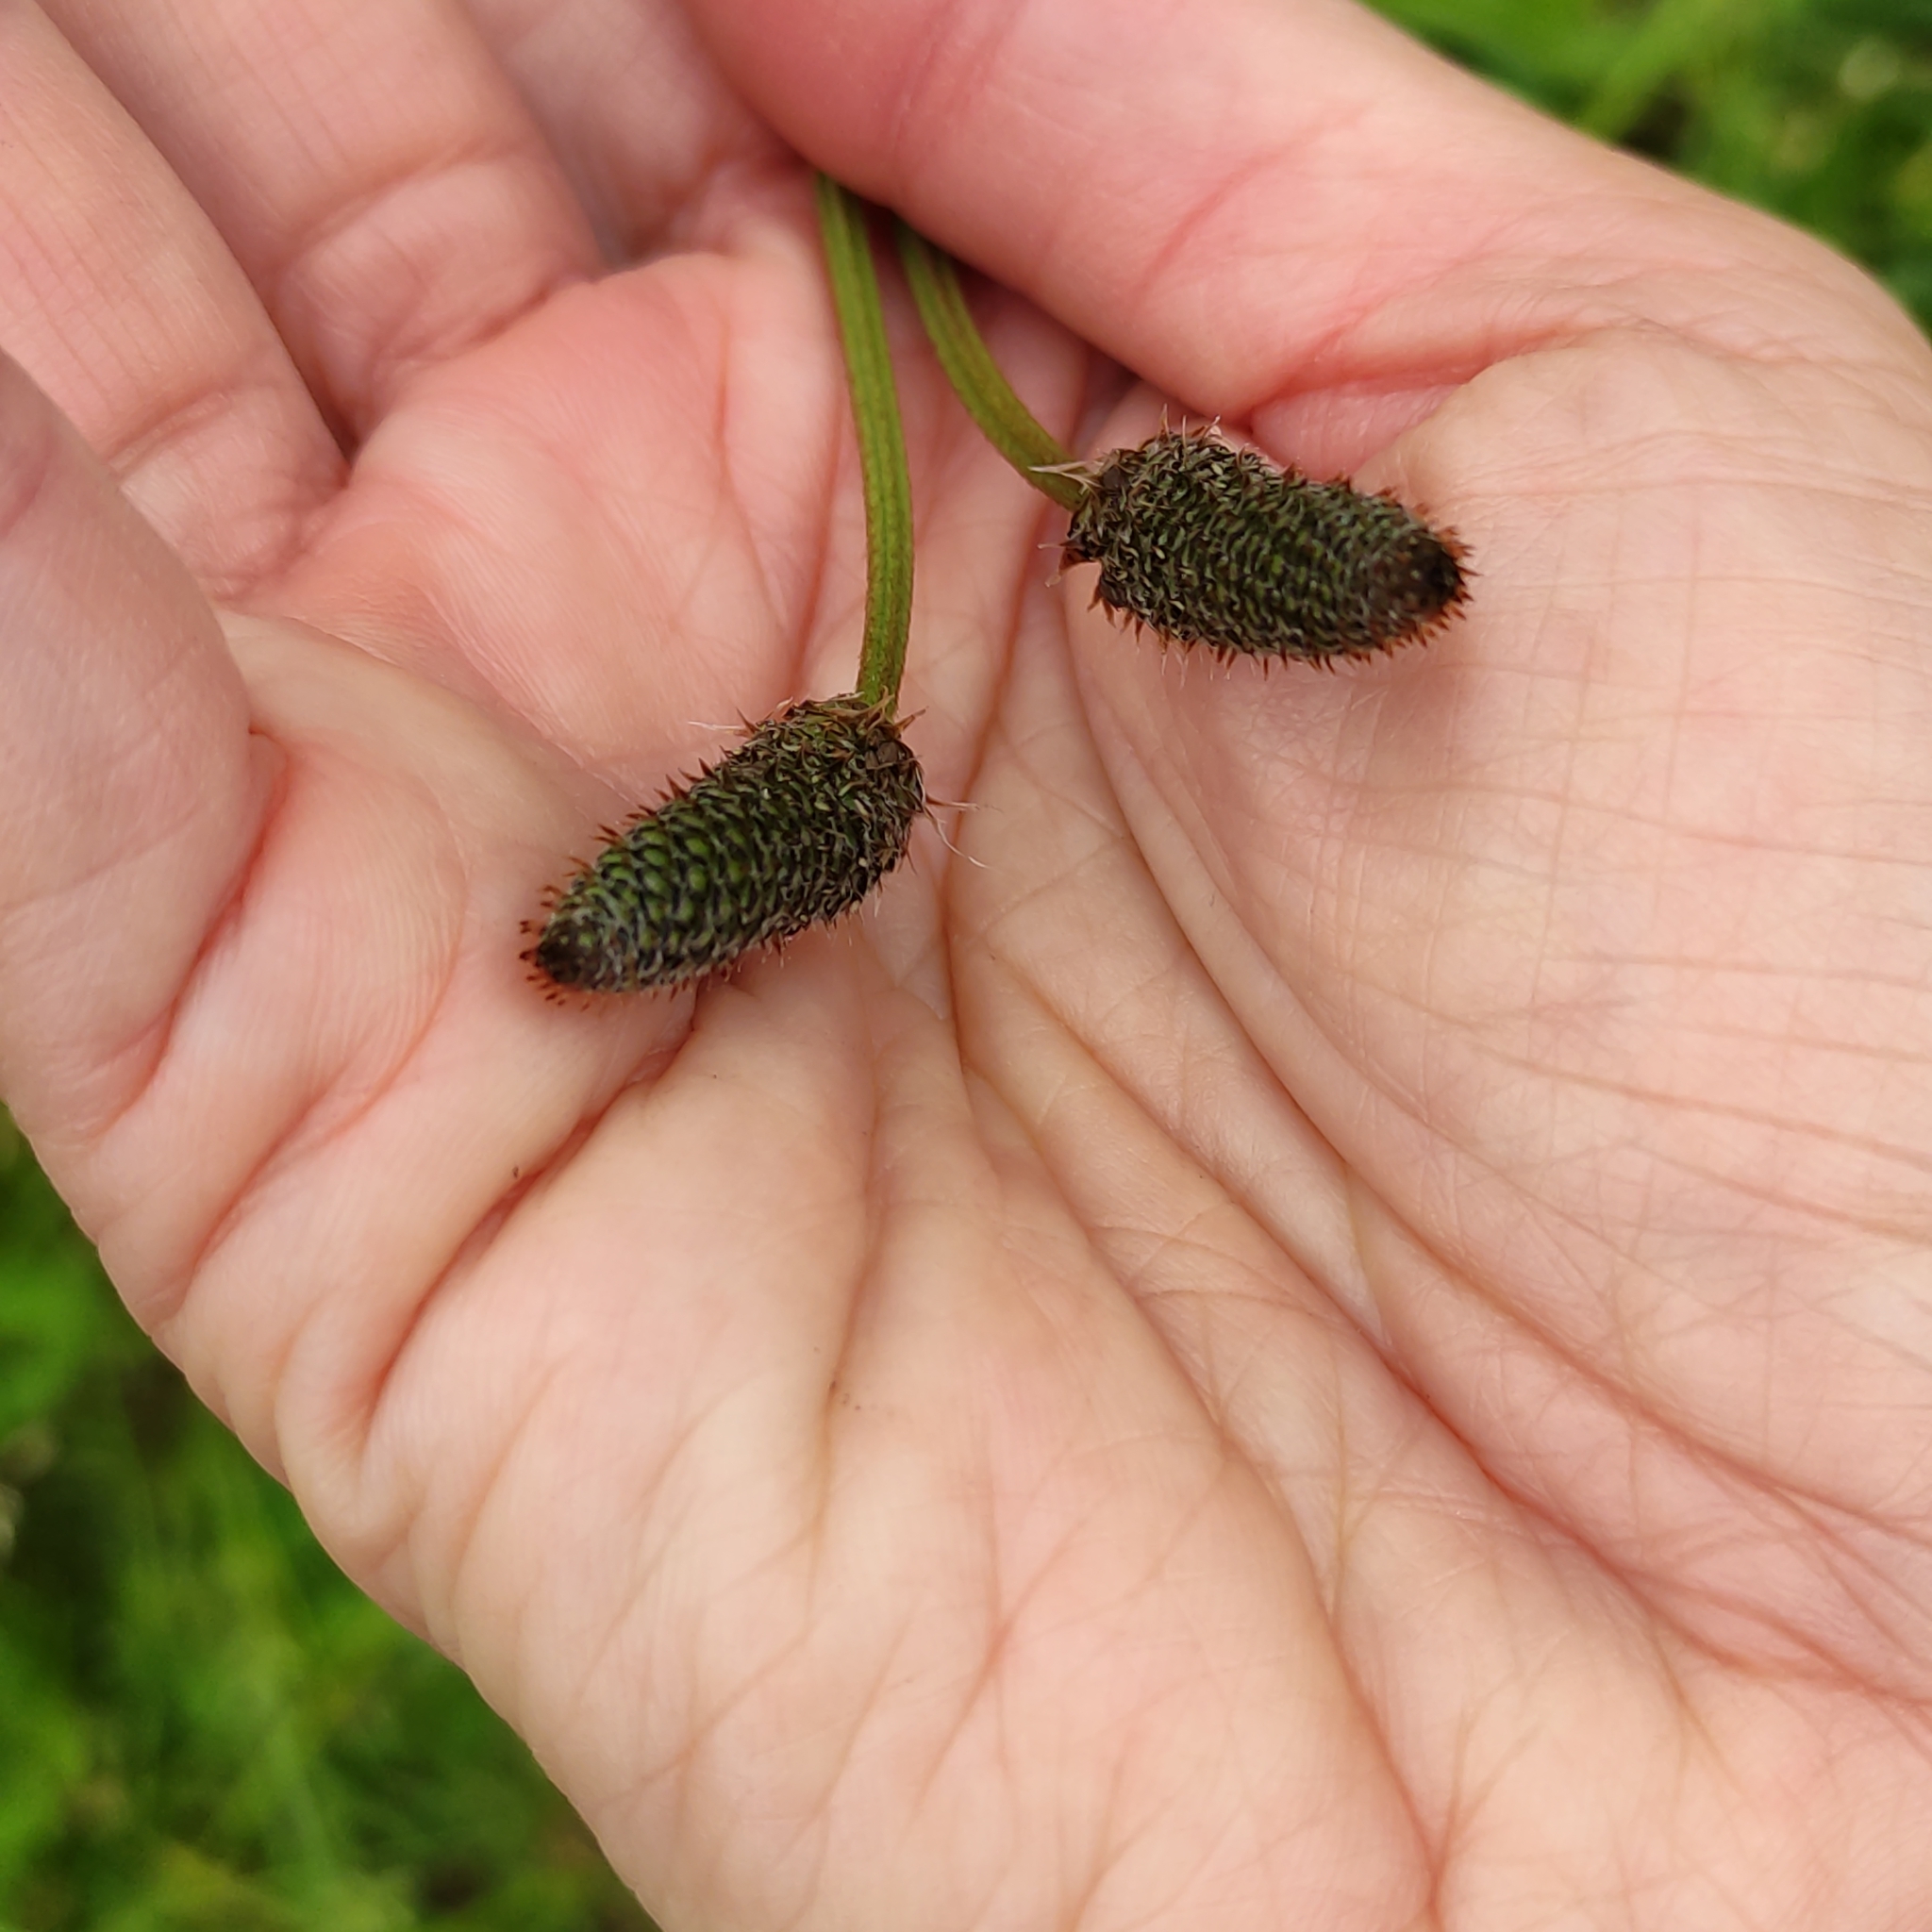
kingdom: Plantae
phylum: Tracheophyta
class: Magnoliopsida
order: Lamiales
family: Plantaginaceae
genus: Plantago
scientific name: Plantago lanceolata
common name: Ribwort plantain
